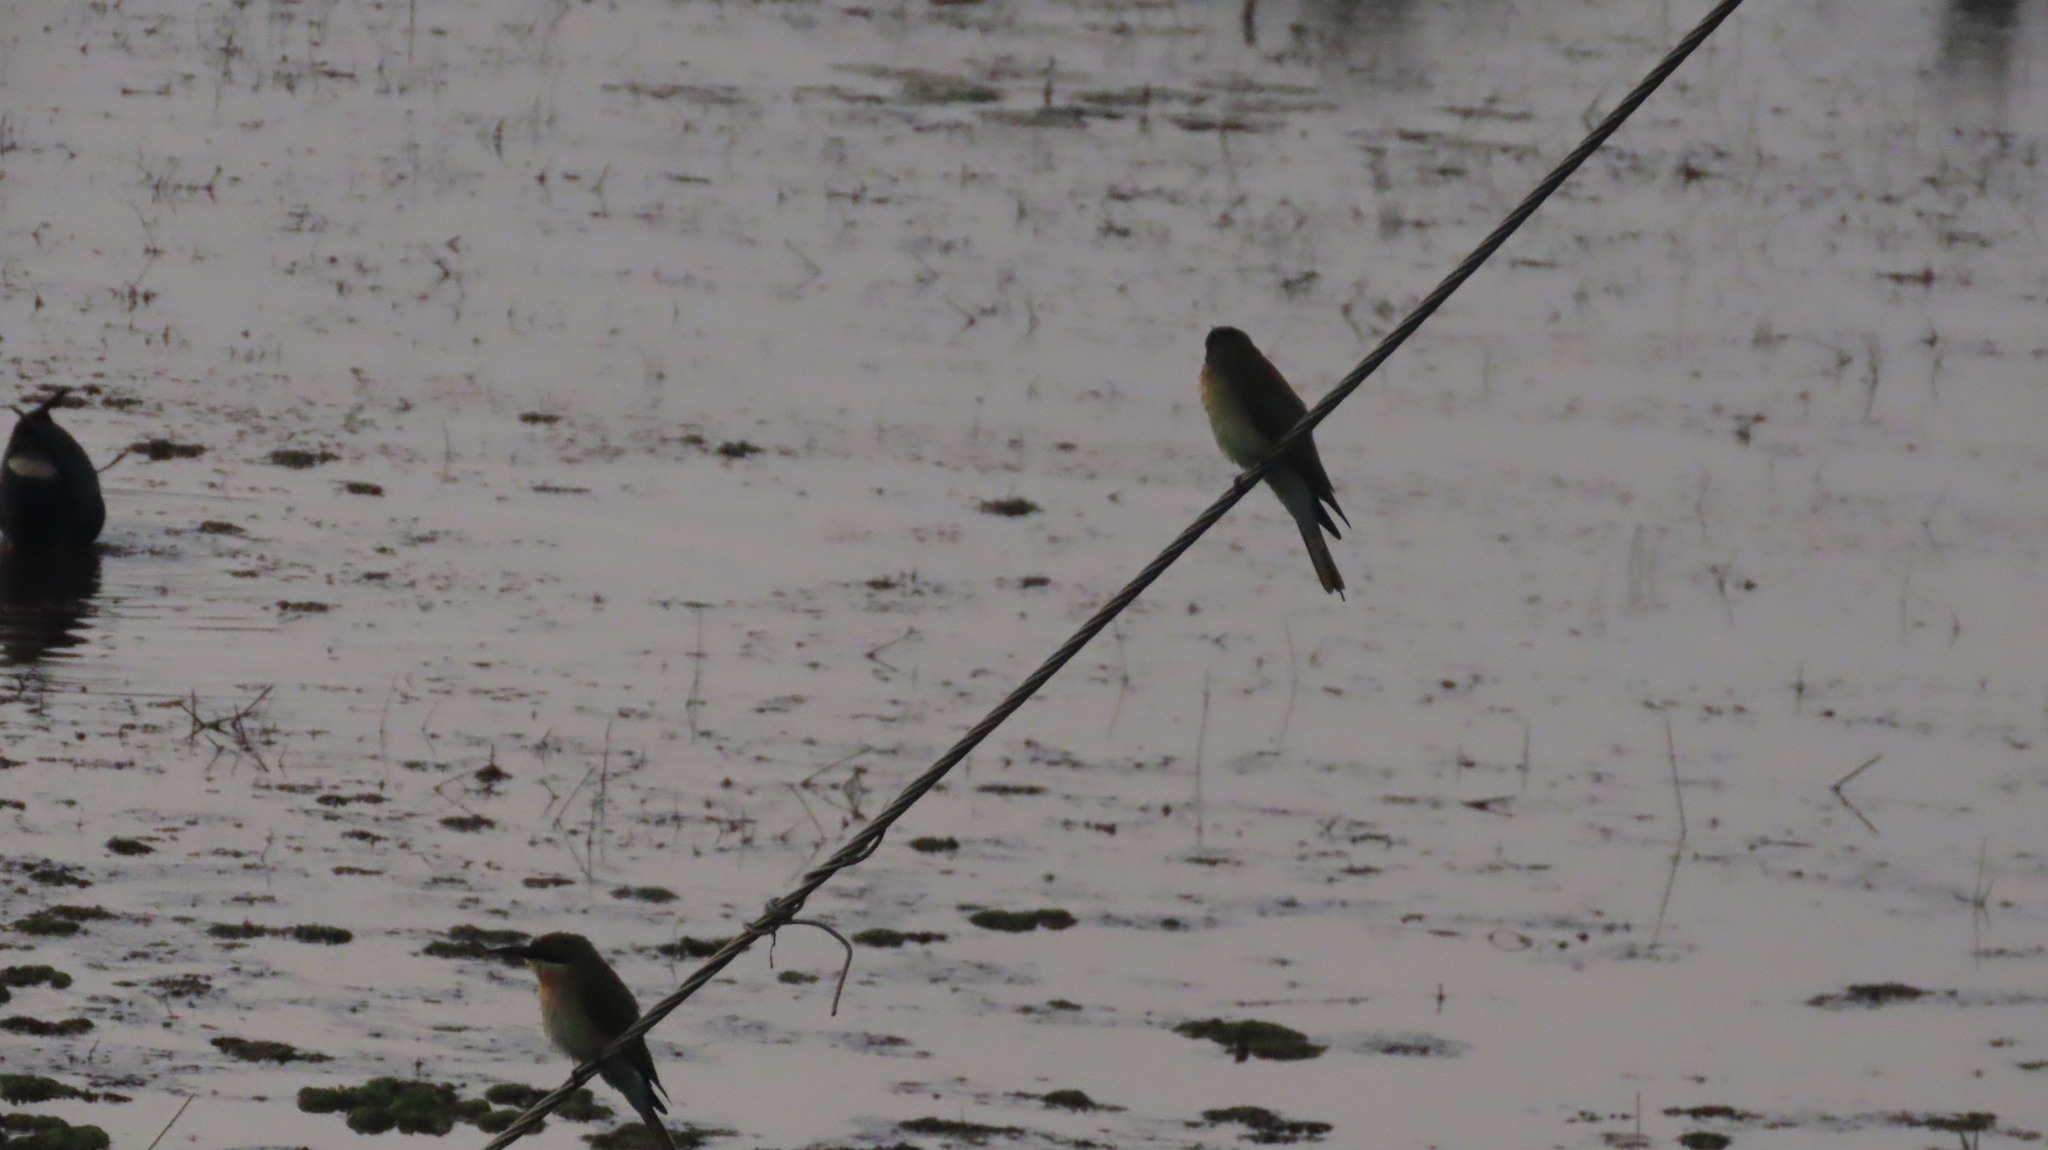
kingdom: Animalia
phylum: Chordata
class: Aves
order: Coraciiformes
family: Meropidae
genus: Merops
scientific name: Merops philippinus
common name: Blue-tailed bee-eater
